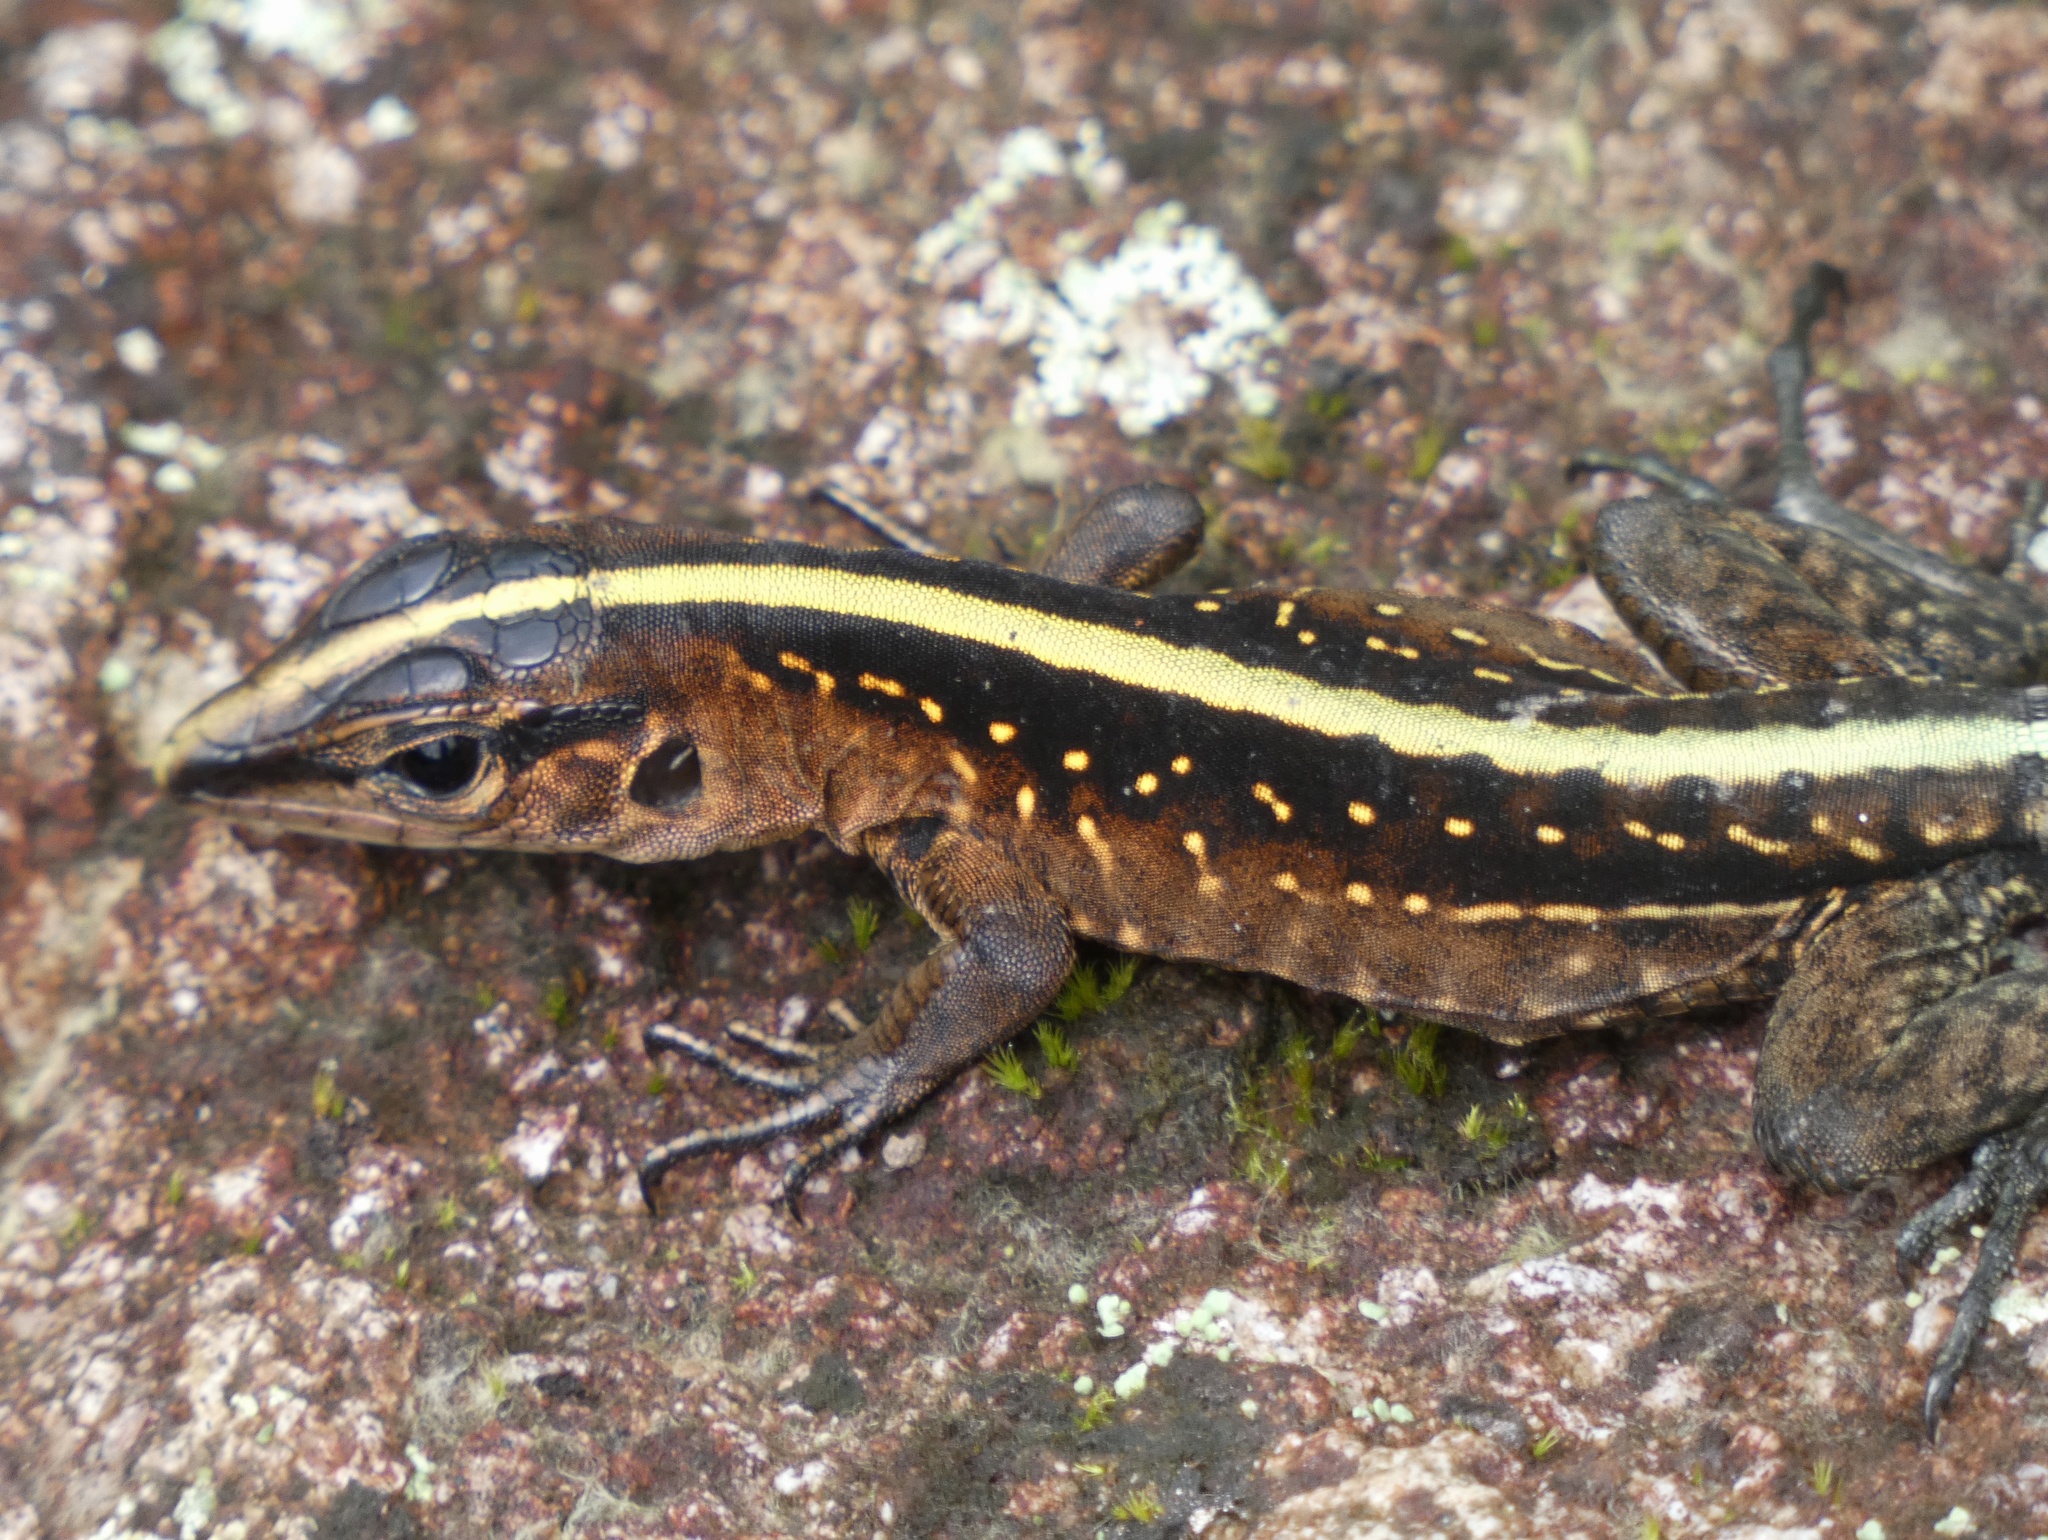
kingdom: Animalia
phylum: Chordata
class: Squamata
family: Teiidae
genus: Holcosus
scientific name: Holcosus festivus
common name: Middle american ameiva
